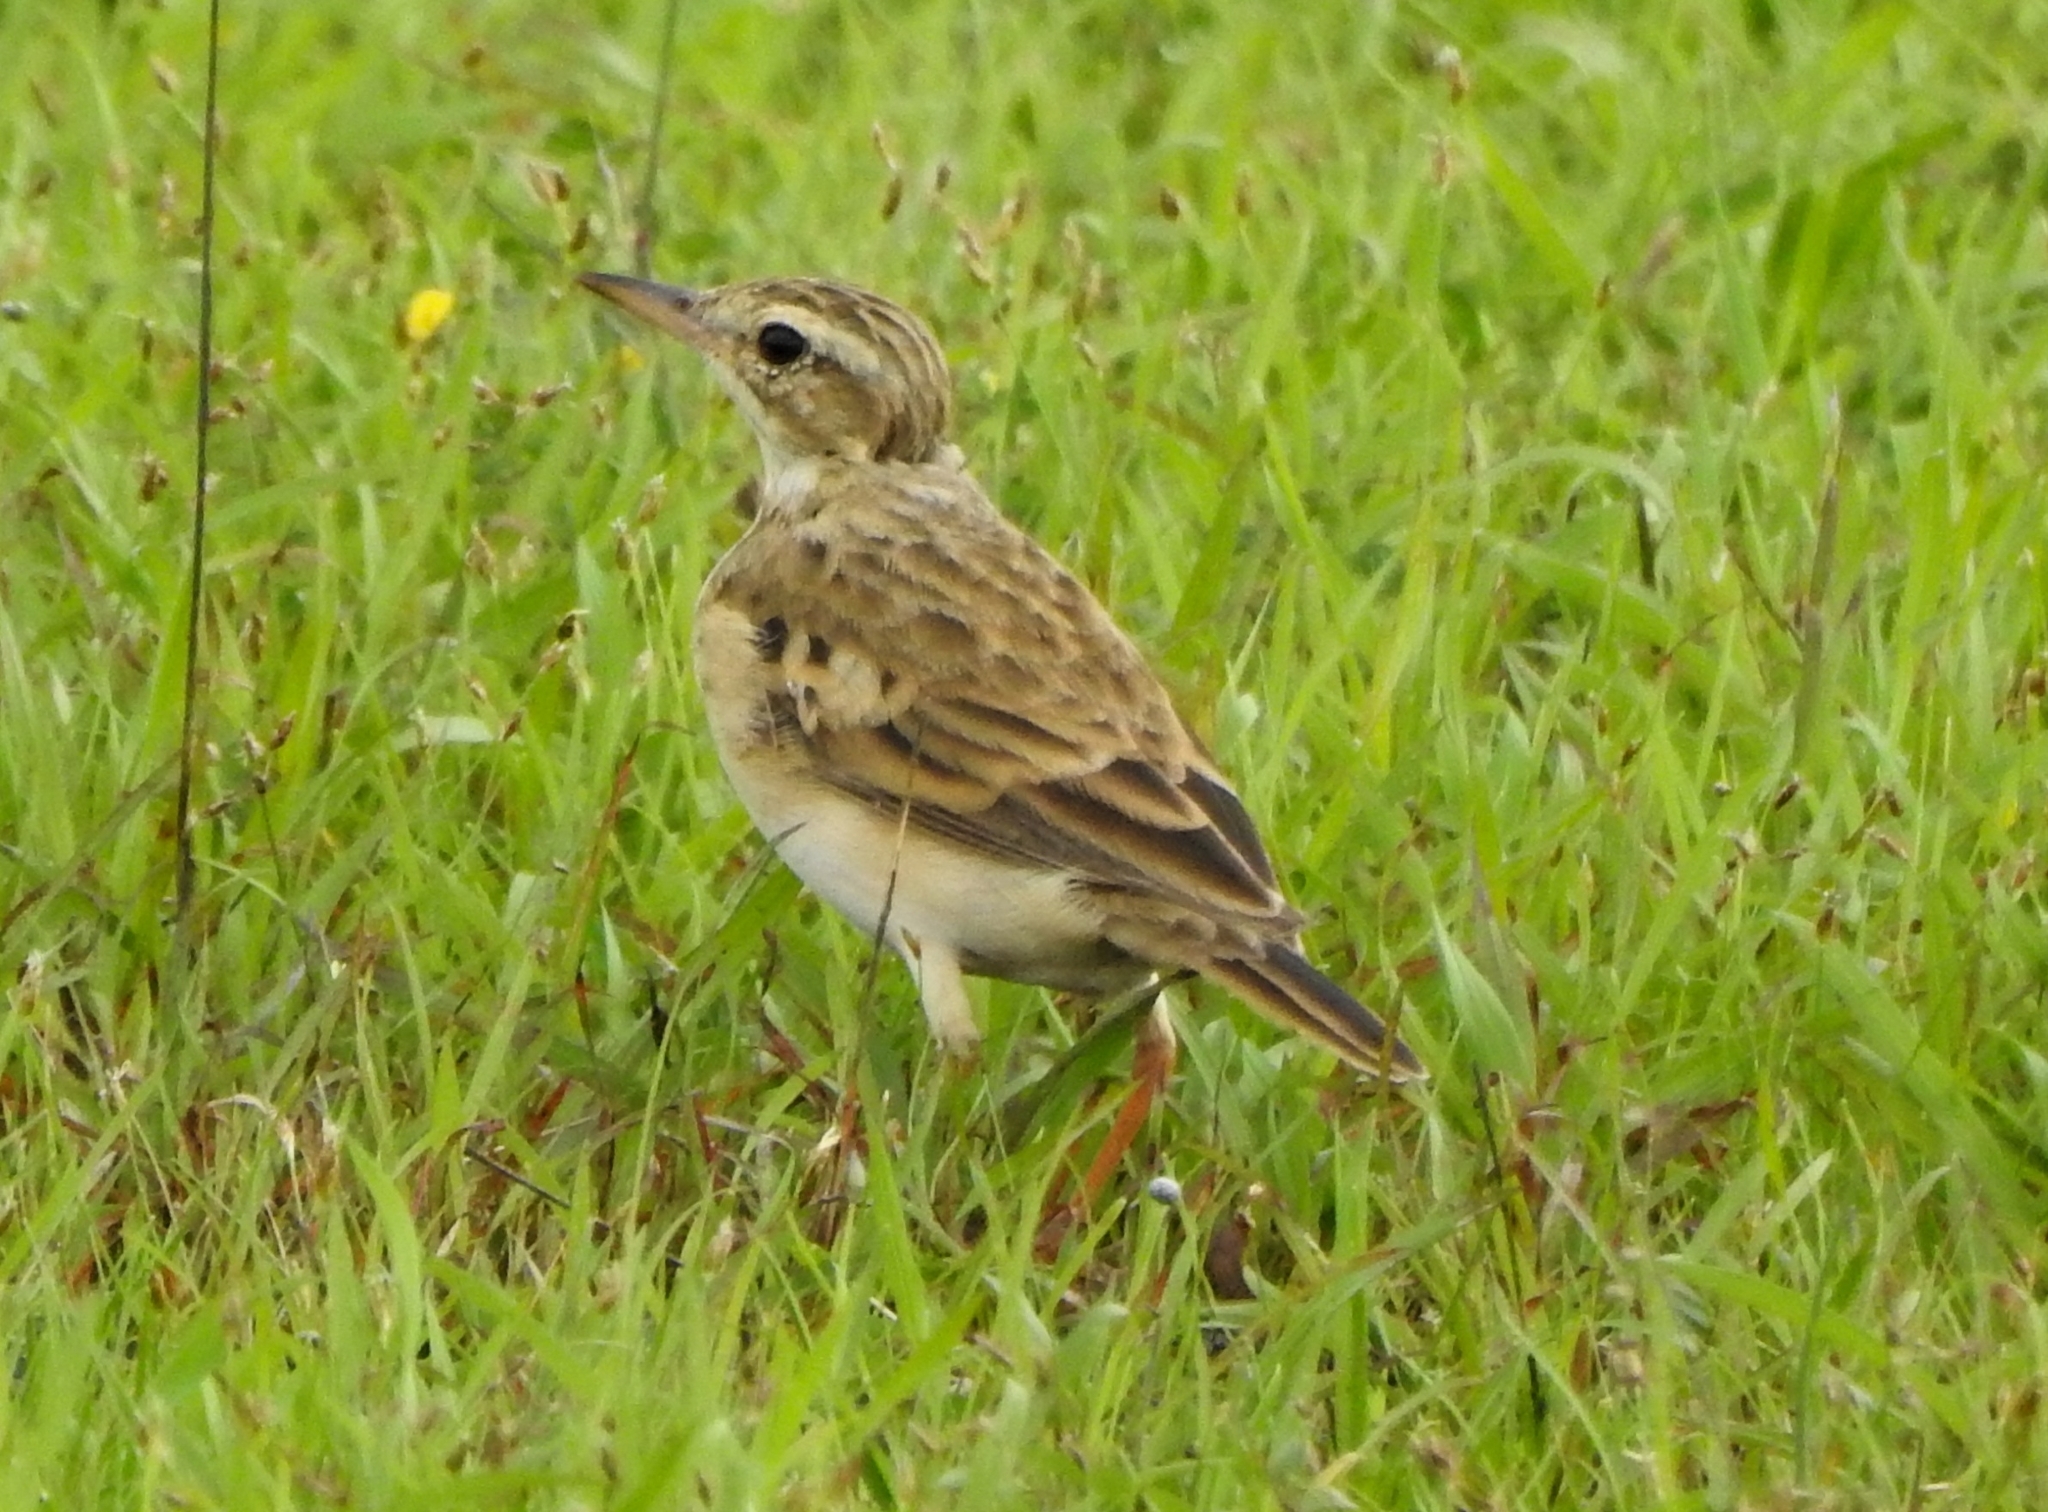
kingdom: Animalia
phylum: Chordata
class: Aves
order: Passeriformes
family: Motacillidae
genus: Anthus
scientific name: Anthus rufulus
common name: Paddyfield pipit
